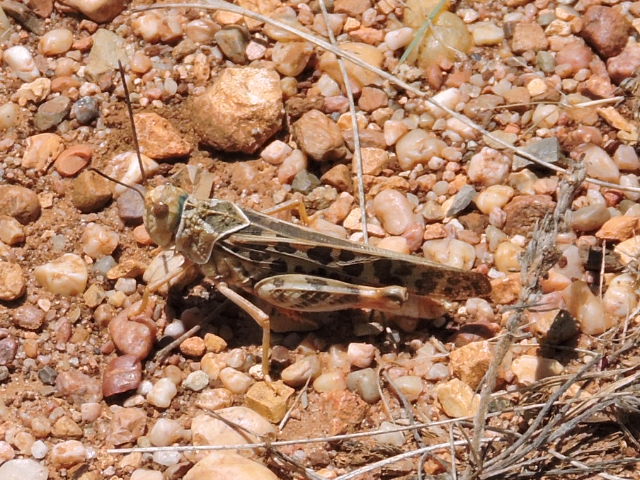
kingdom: Animalia
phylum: Arthropoda
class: Insecta
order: Orthoptera
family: Acrididae
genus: Xanthippus
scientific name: Xanthippus corallipes
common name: Redshanked grasshopper
